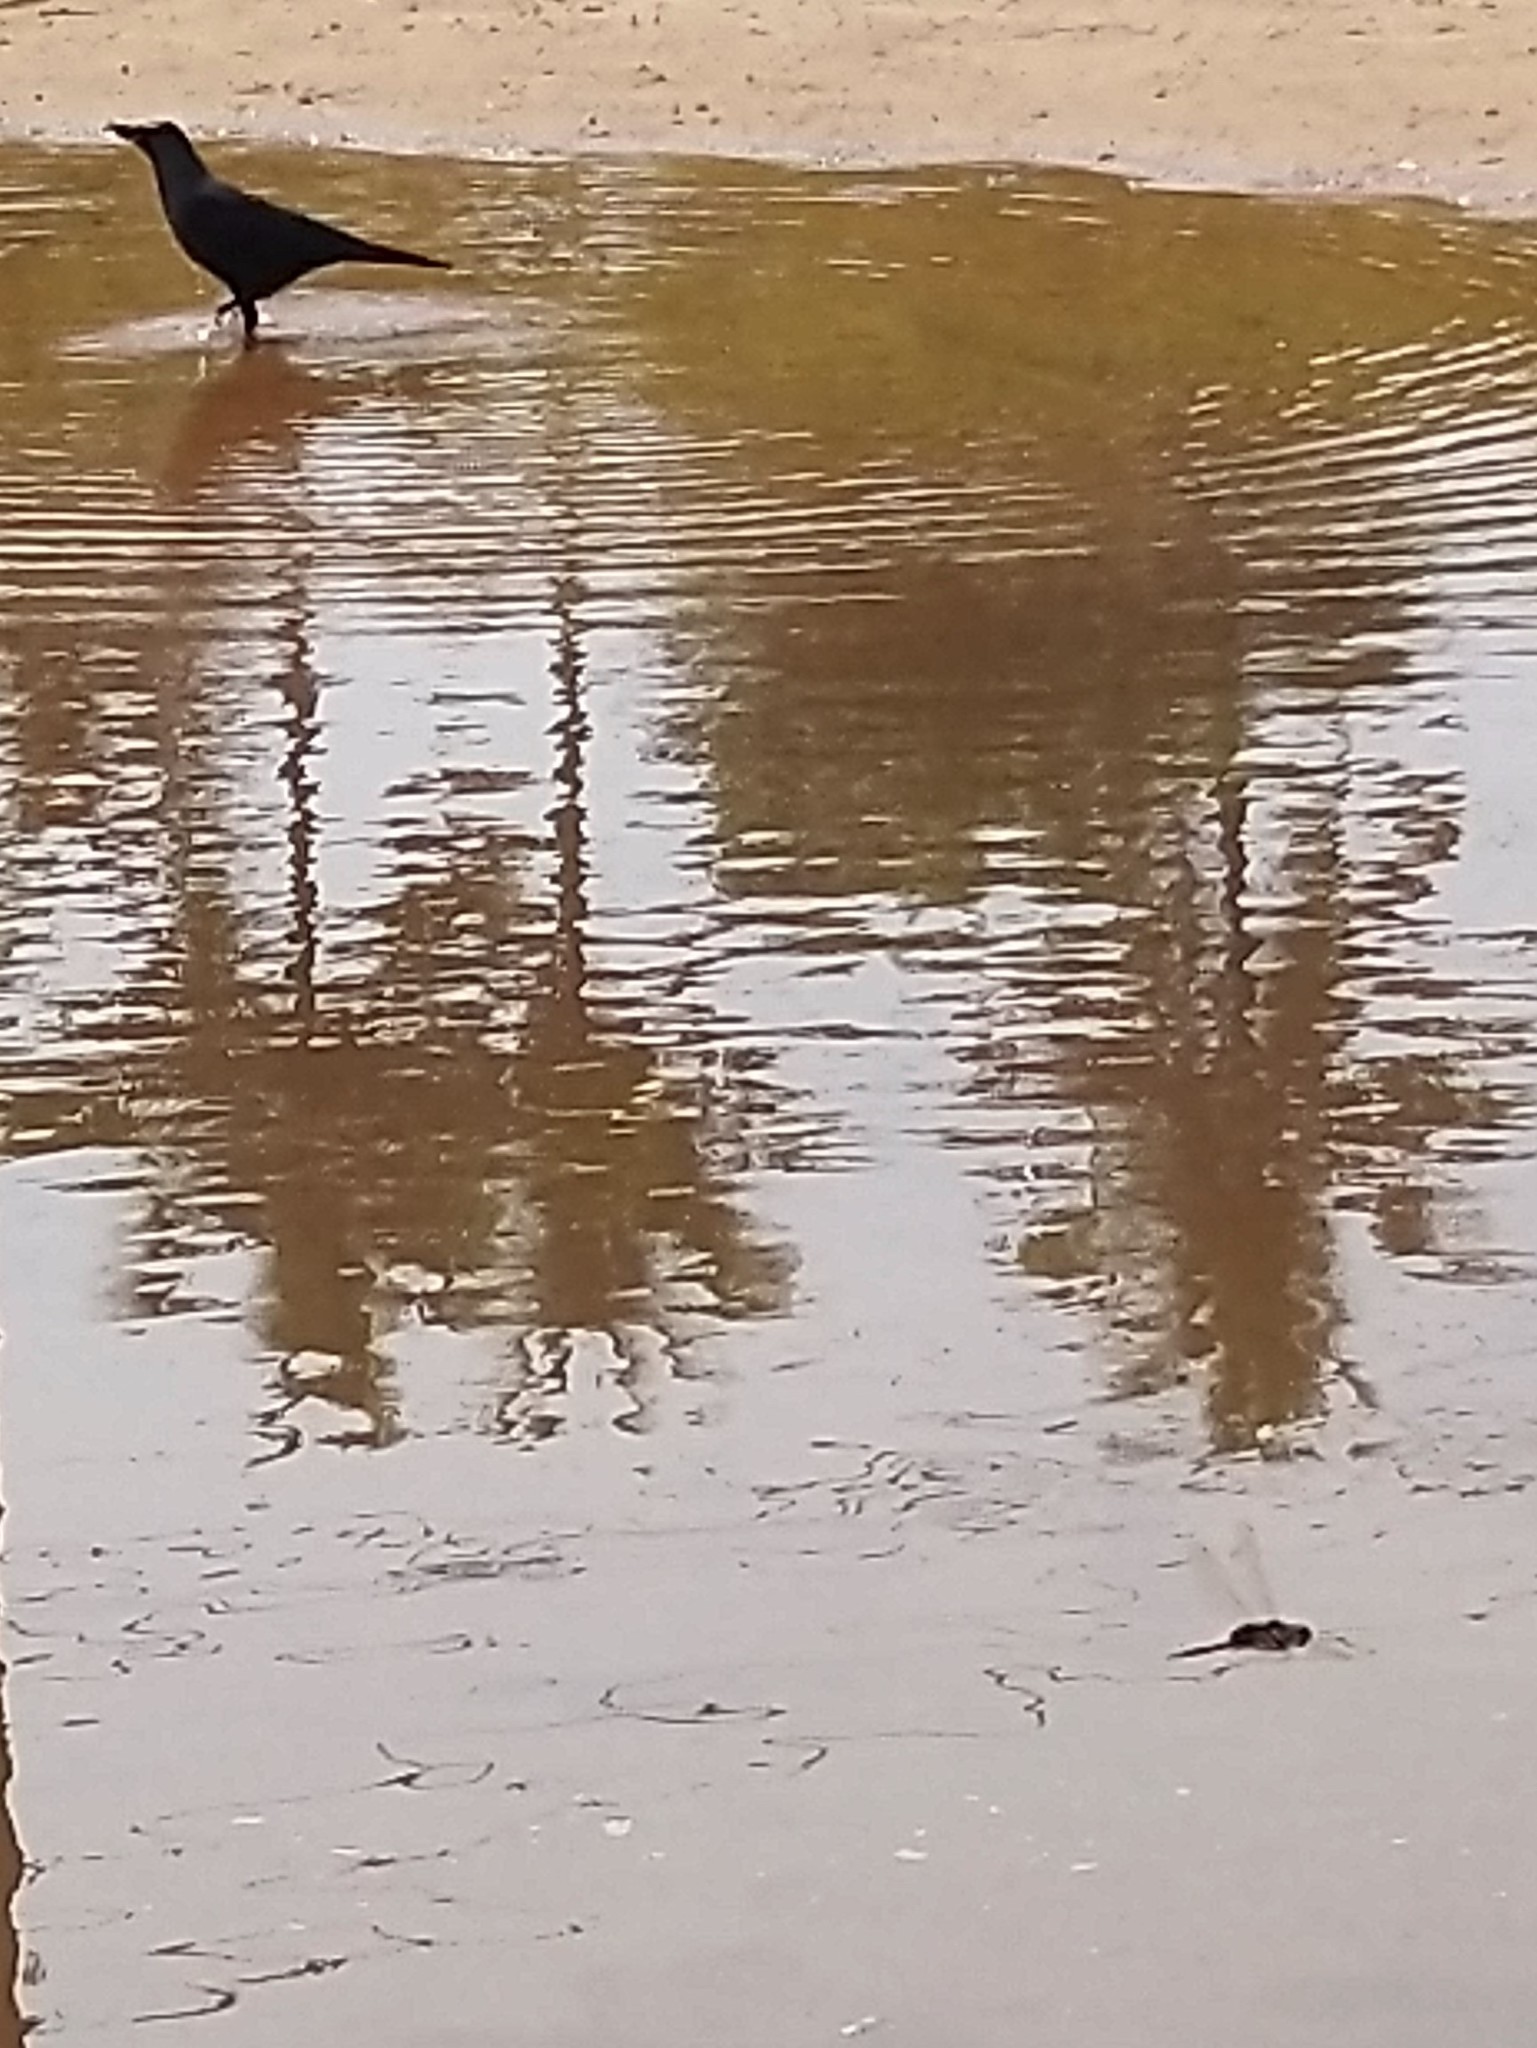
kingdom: Animalia
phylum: Chordata
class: Aves
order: Passeriformes
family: Corvidae
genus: Corvus
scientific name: Corvus splendens
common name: House crow
